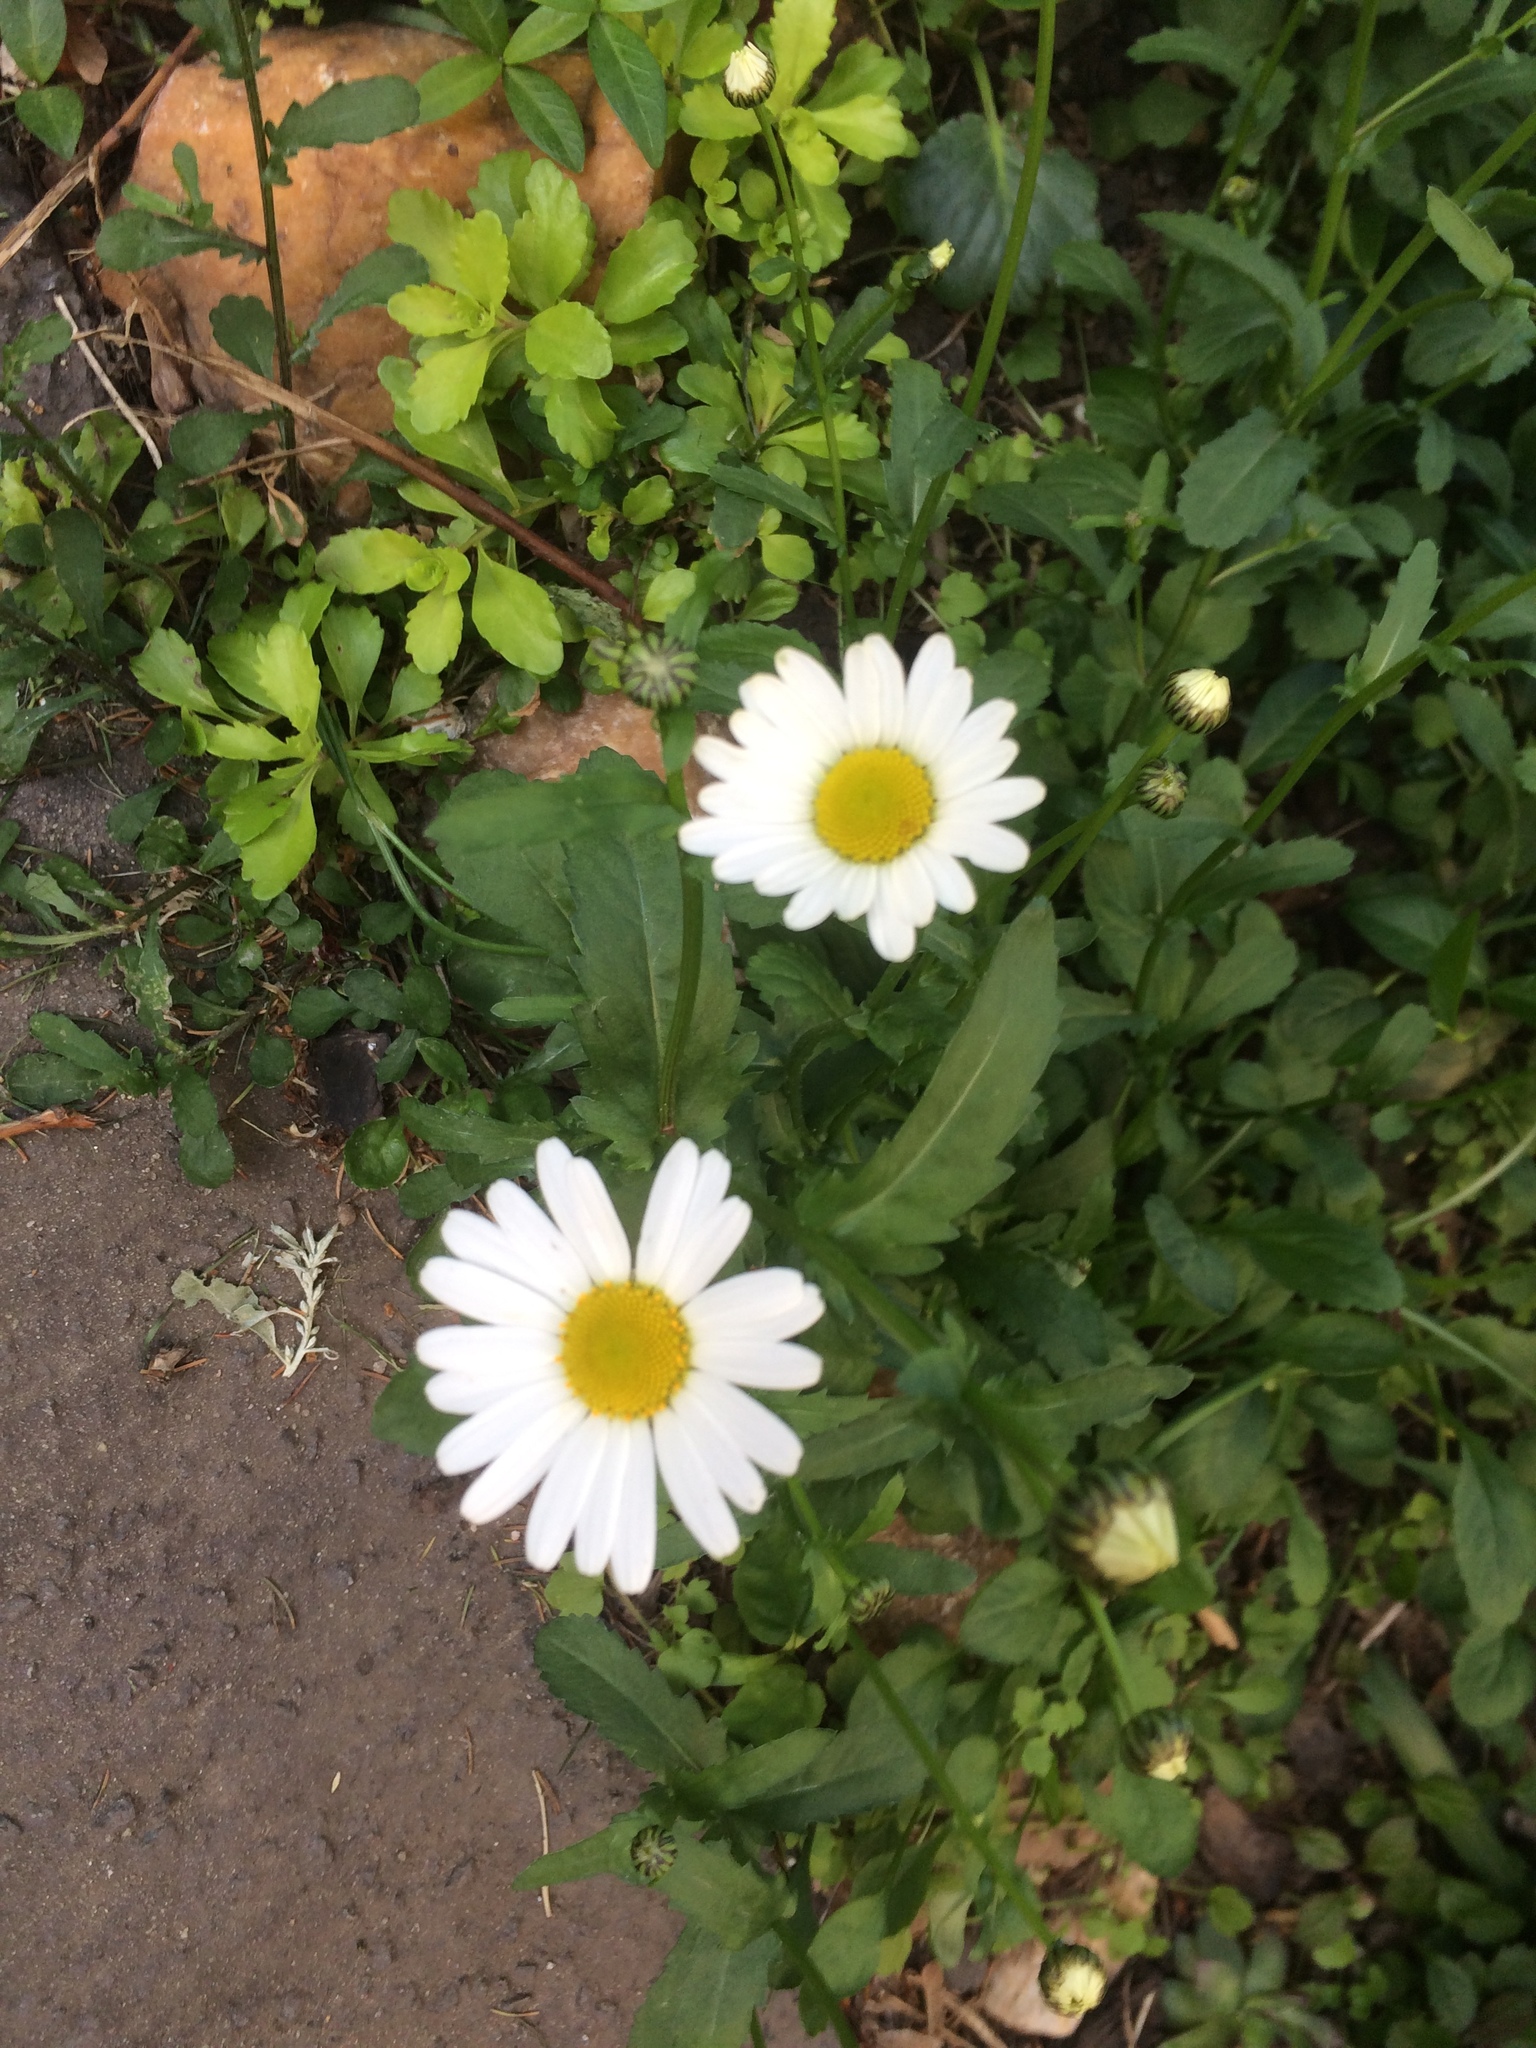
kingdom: Plantae
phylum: Tracheophyta
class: Magnoliopsida
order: Asterales
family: Asteraceae
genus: Leucanthemum
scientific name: Leucanthemum vulgare
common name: Oxeye daisy
